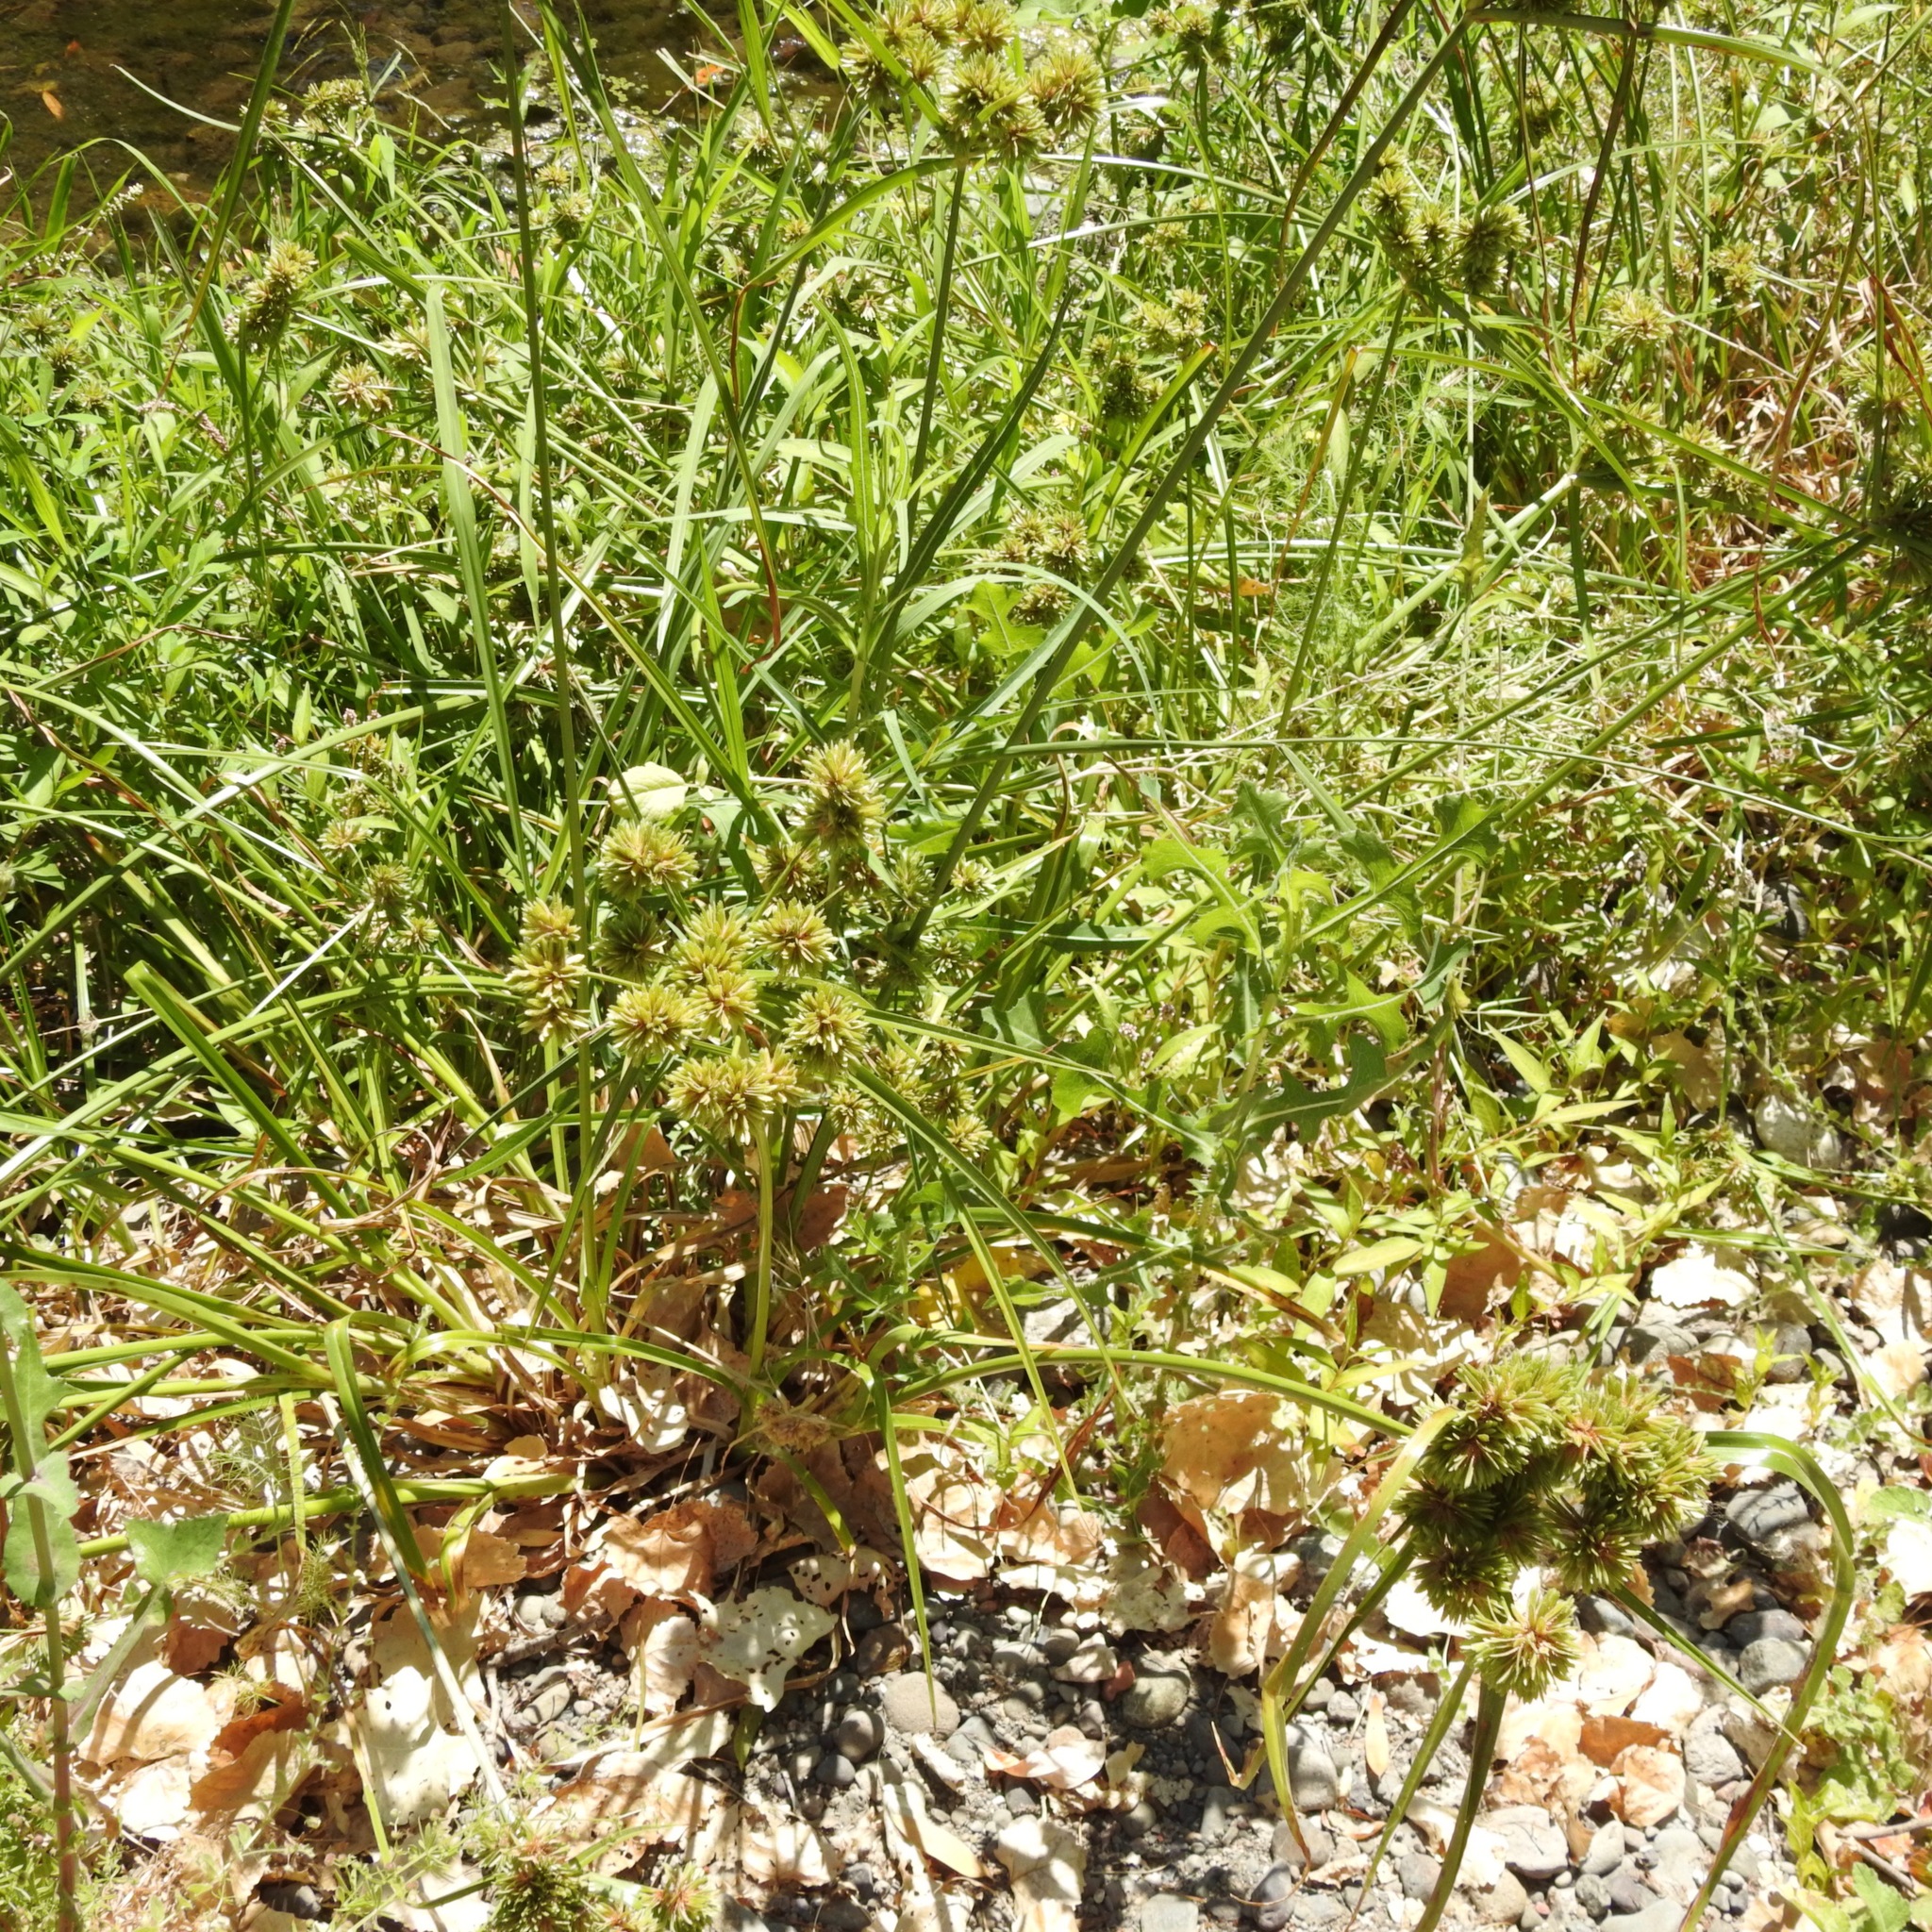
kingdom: Plantae
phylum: Tracheophyta
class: Liliopsida
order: Poales
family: Cyperaceae
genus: Cyperus
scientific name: Cyperus eragrostis
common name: Tall flatsedge
